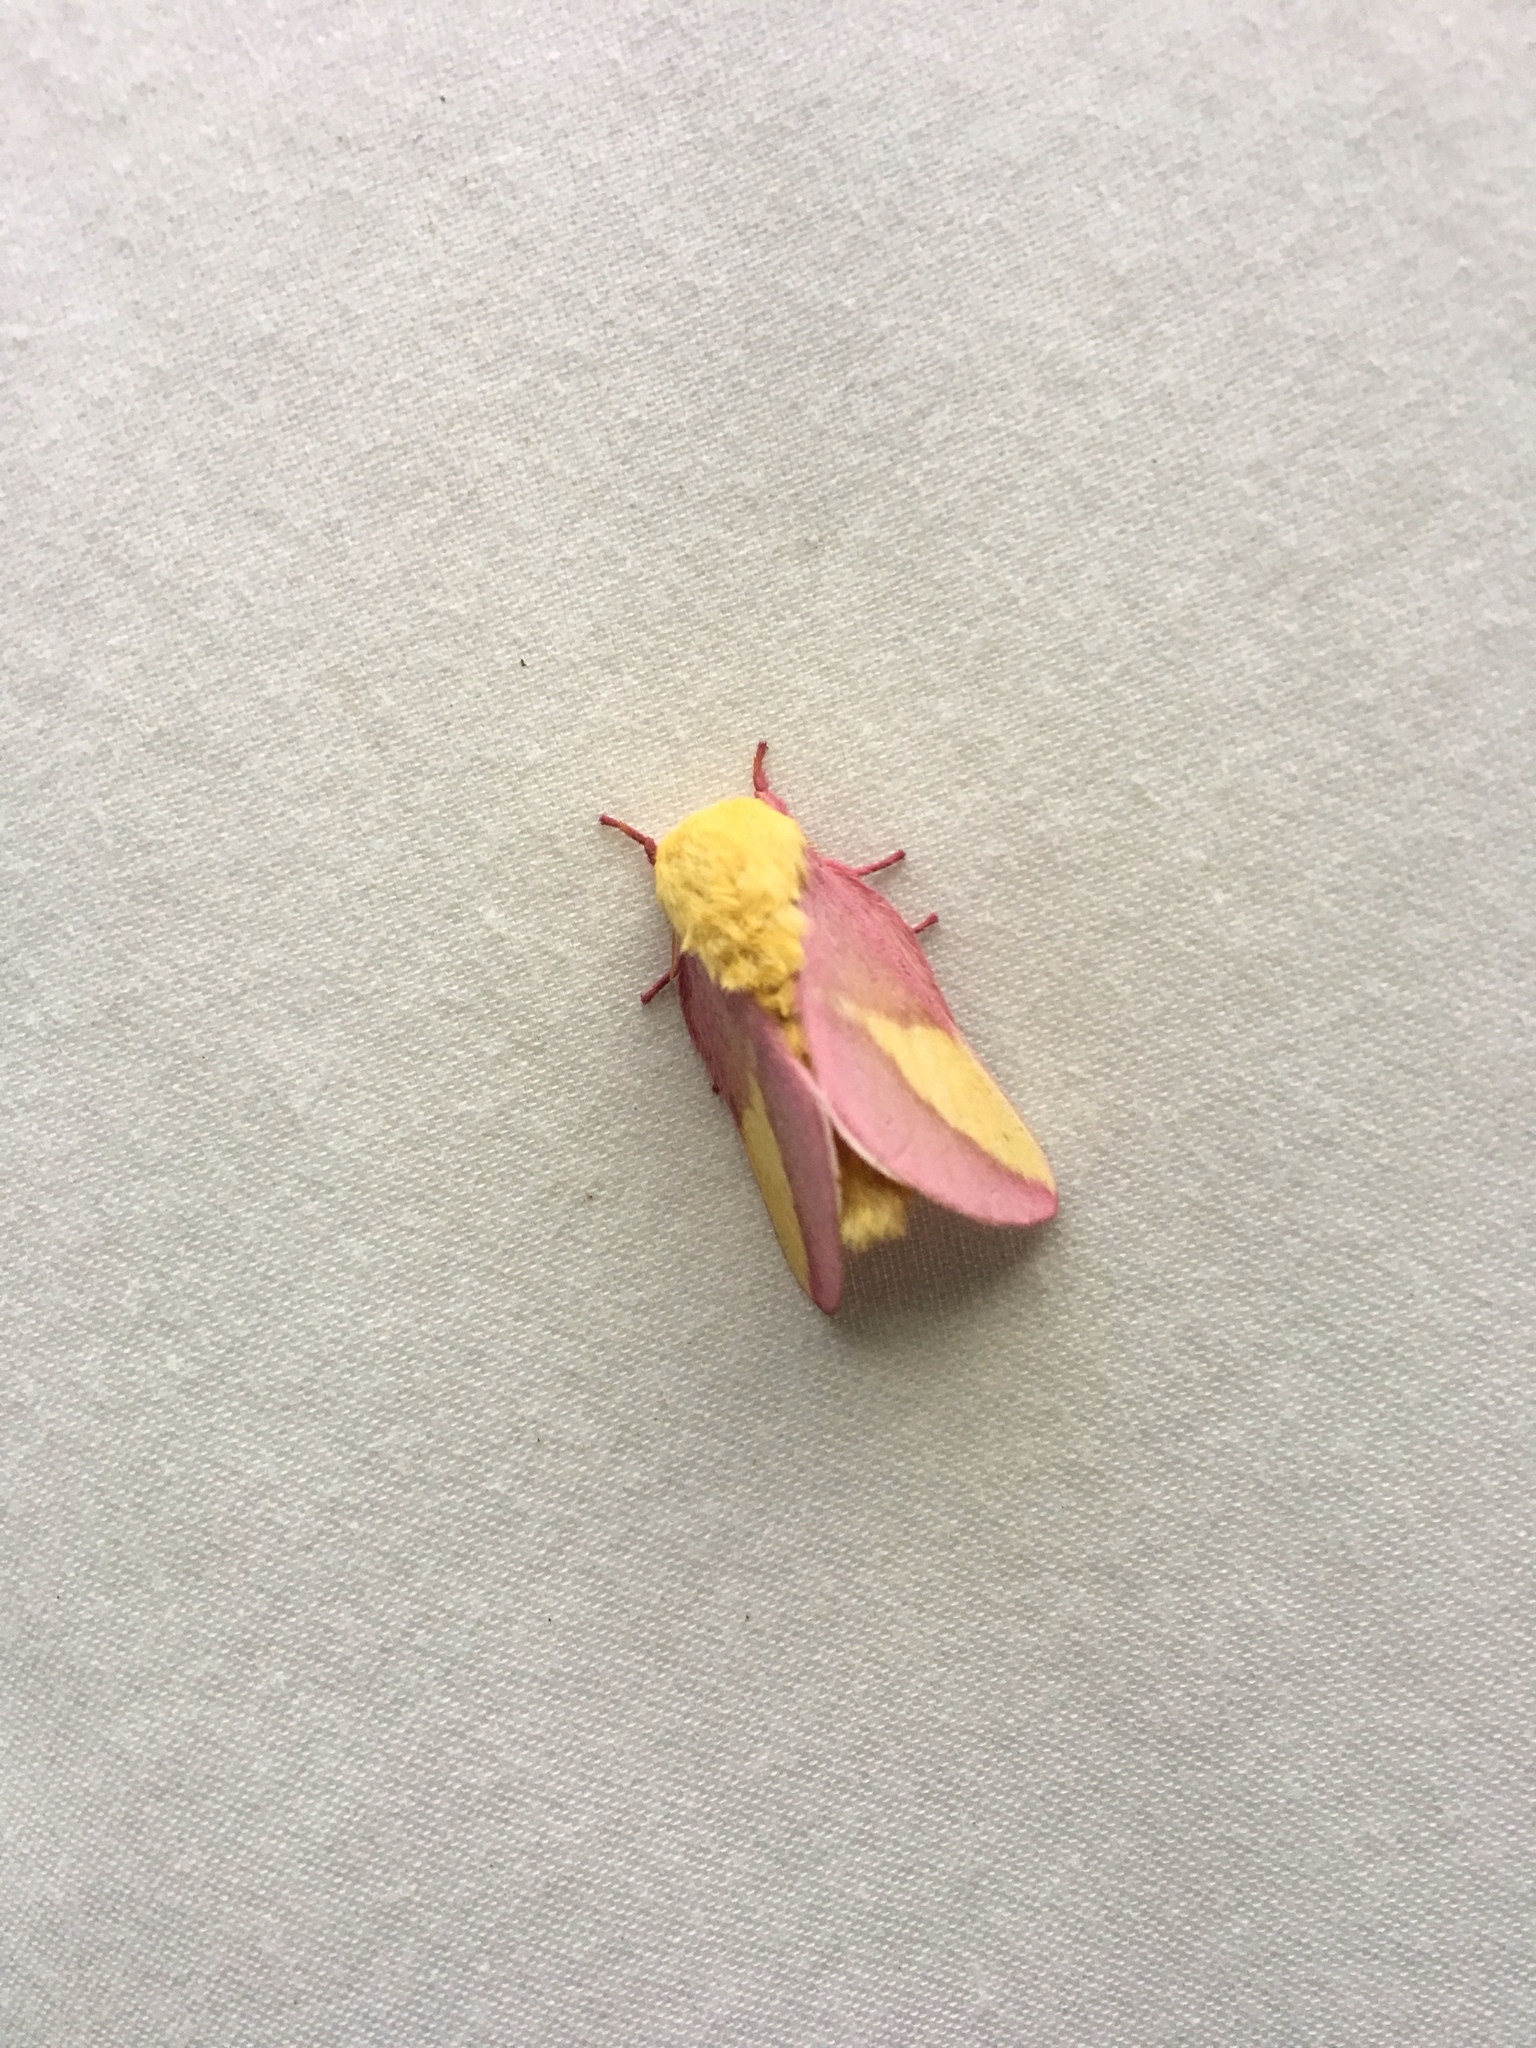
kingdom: Animalia
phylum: Arthropoda
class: Insecta
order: Lepidoptera
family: Saturniidae
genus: Dryocampa
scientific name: Dryocampa rubicunda
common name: Rosy maple moth
